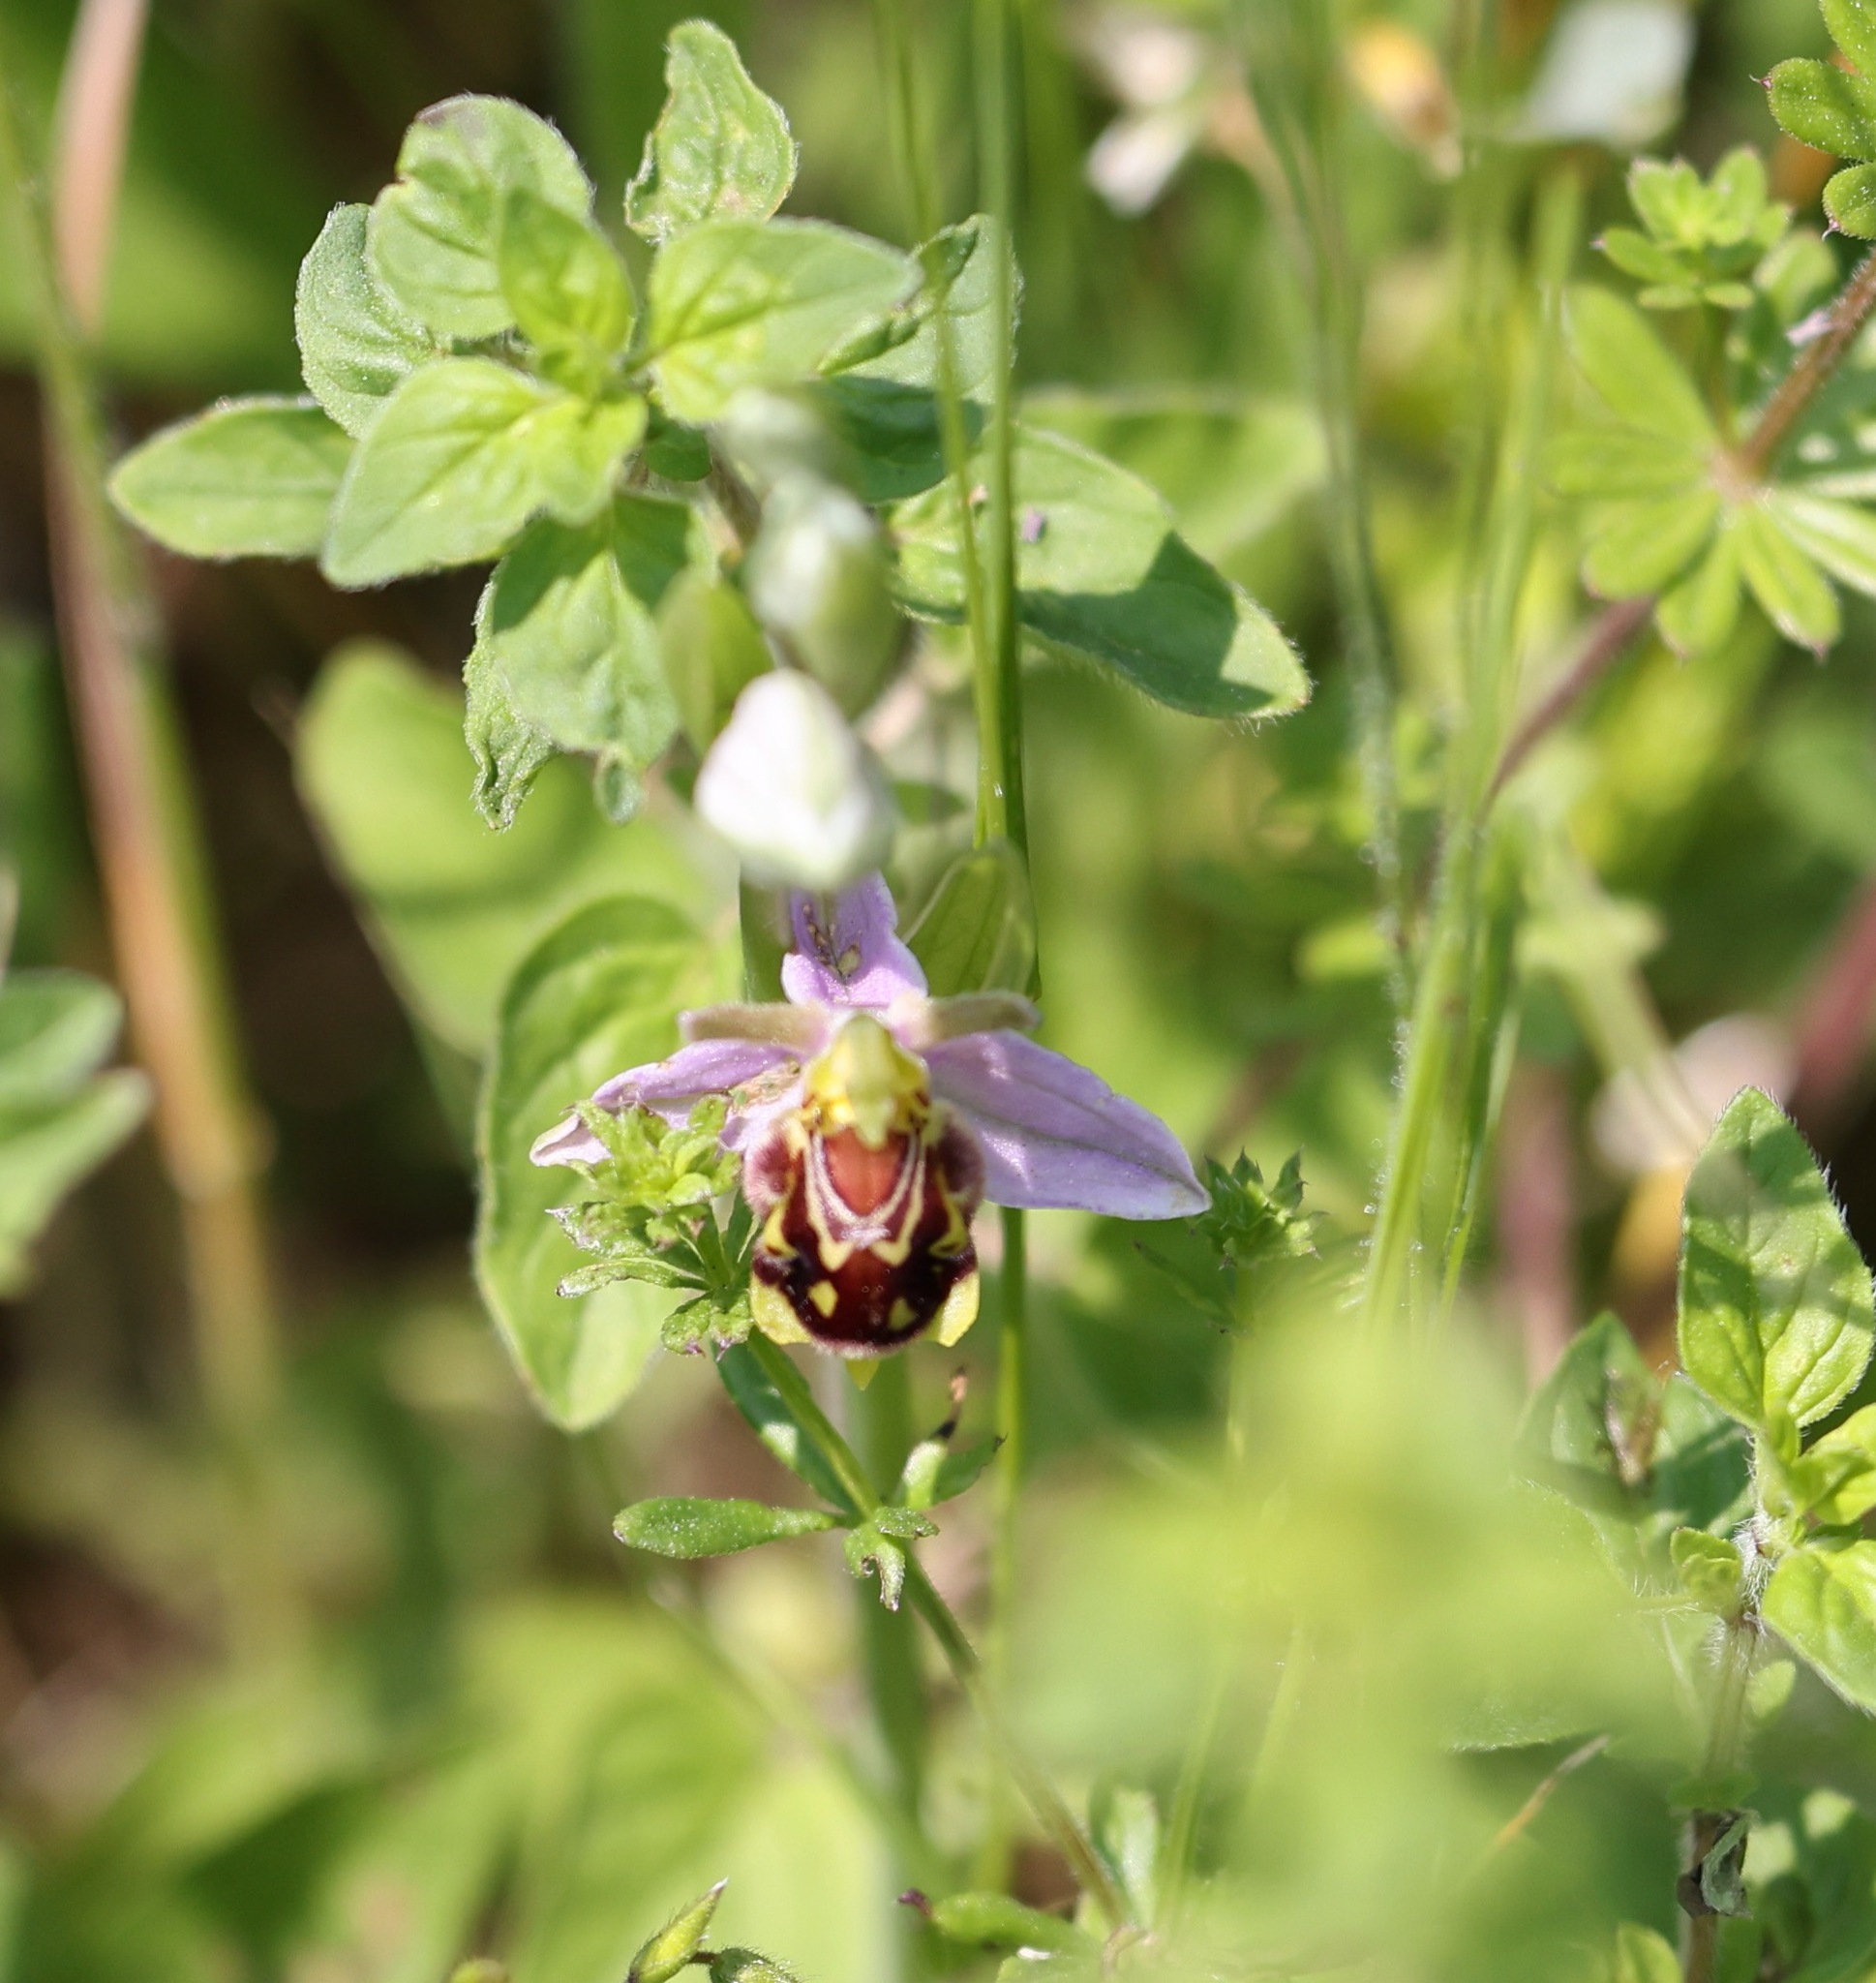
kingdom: Plantae
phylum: Tracheophyta
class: Liliopsida
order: Asparagales
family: Orchidaceae
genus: Ophrys
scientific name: Ophrys apifera
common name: Bee orchid
